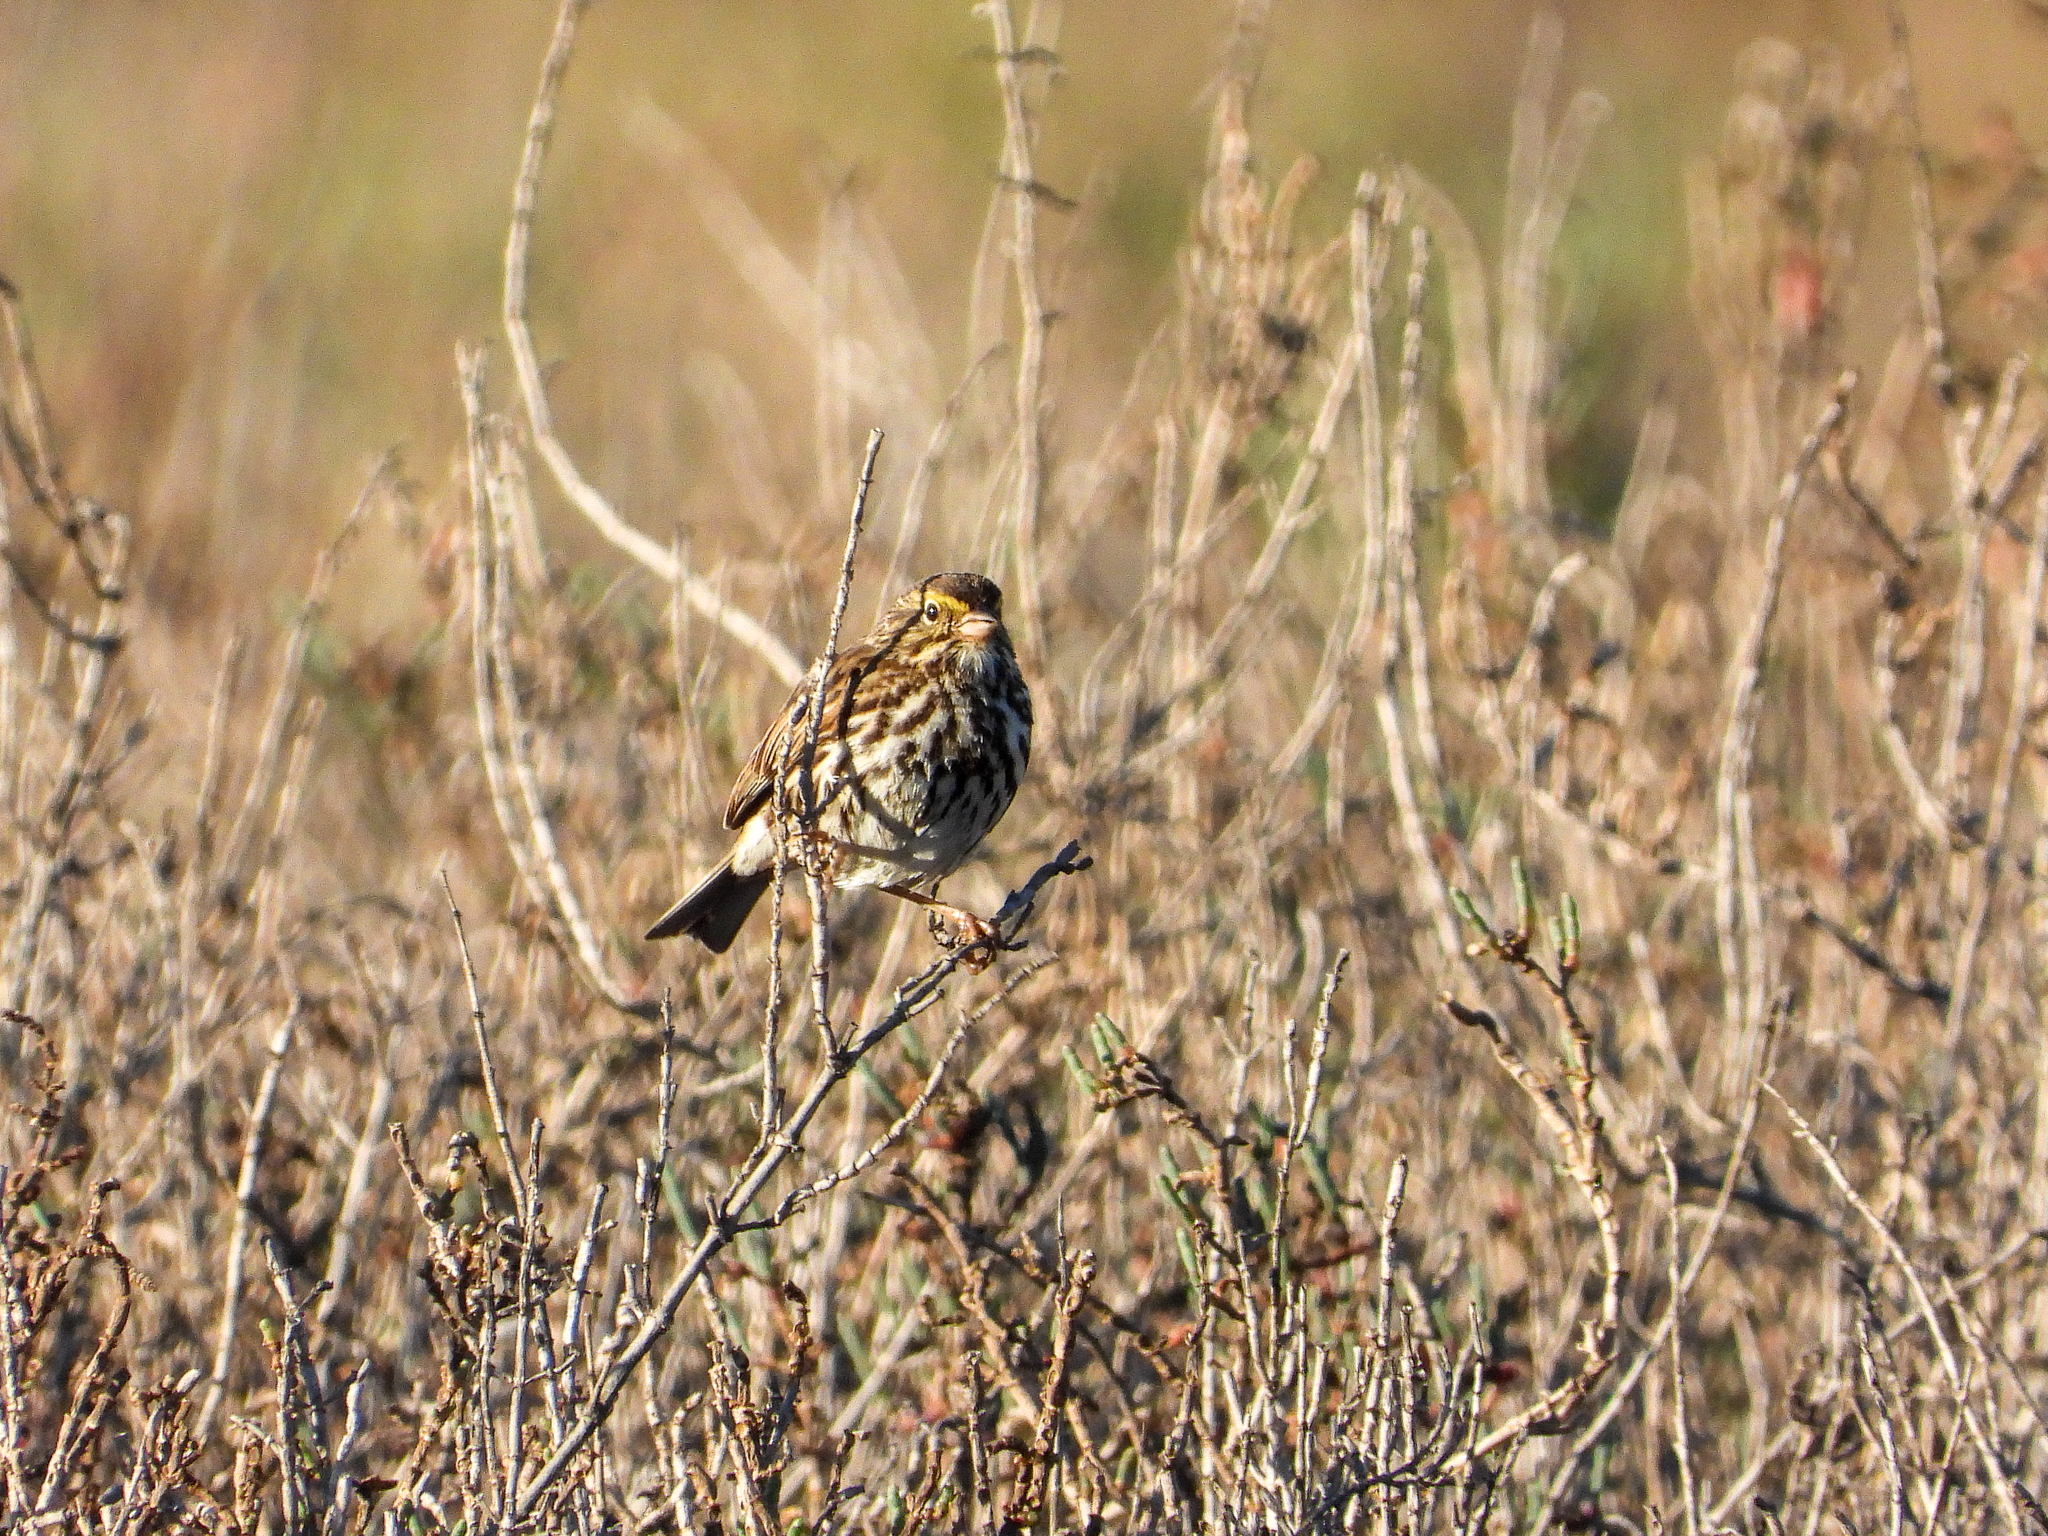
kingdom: Animalia
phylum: Chordata
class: Aves
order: Passeriformes
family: Passerellidae
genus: Passerculus
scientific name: Passerculus sandwichensis
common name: Savannah sparrow
